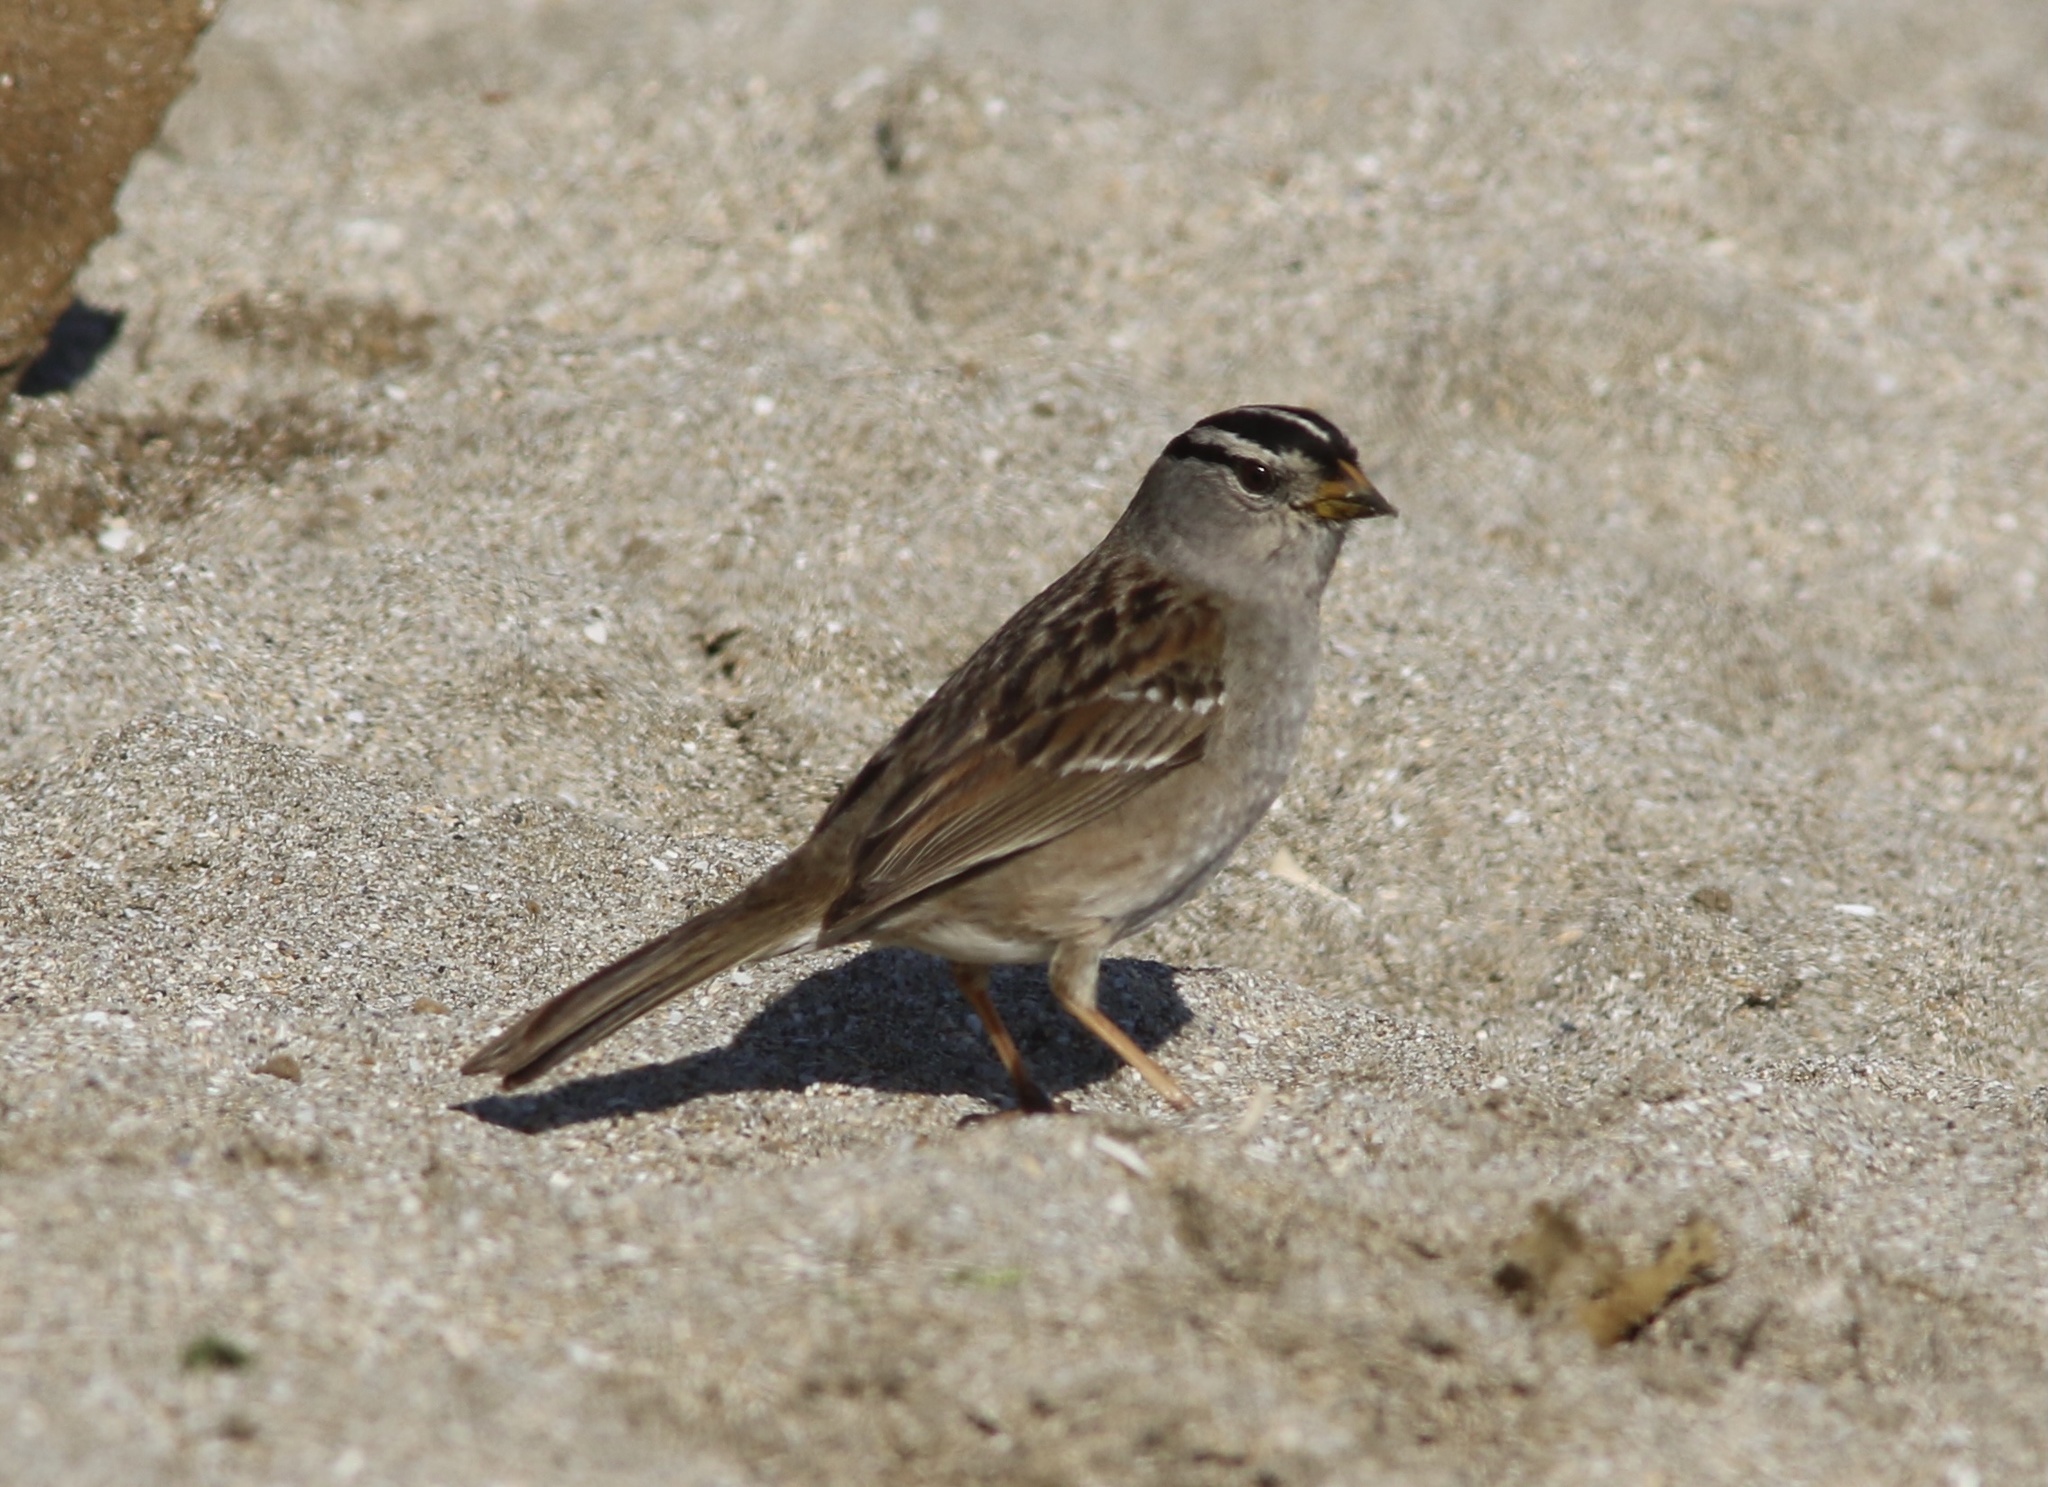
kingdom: Animalia
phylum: Chordata
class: Aves
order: Passeriformes
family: Passerellidae
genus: Zonotrichia
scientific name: Zonotrichia leucophrys
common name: White-crowned sparrow
